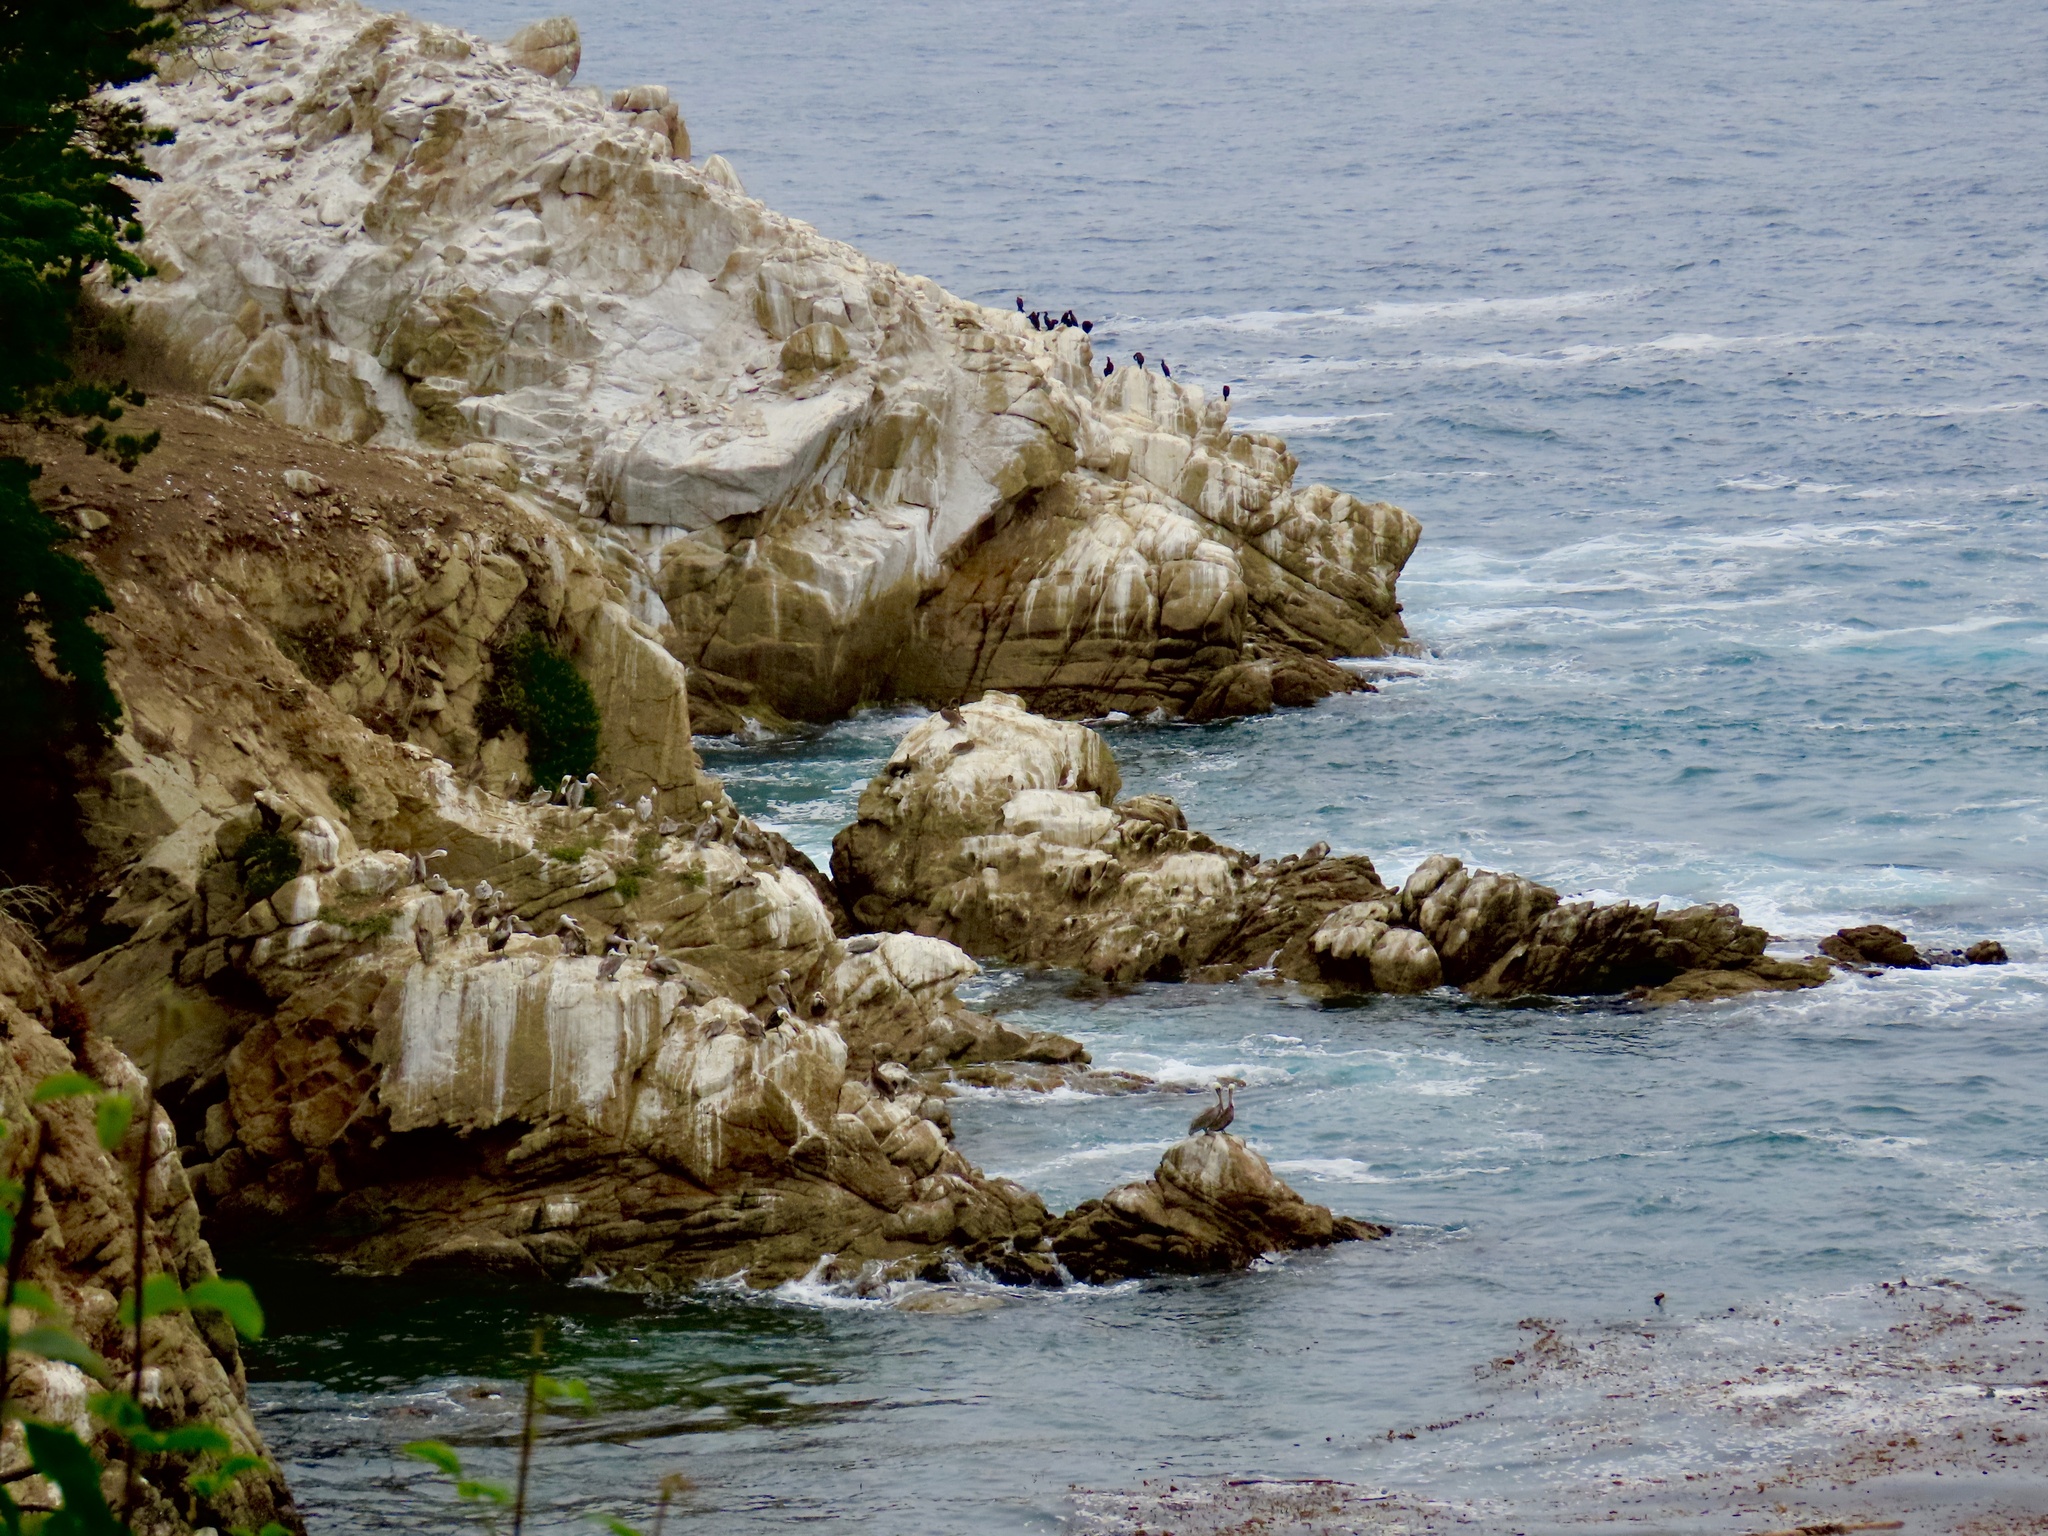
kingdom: Animalia
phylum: Chordata
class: Aves
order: Pelecaniformes
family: Pelecanidae
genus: Pelecanus
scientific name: Pelecanus occidentalis
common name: Brown pelican
